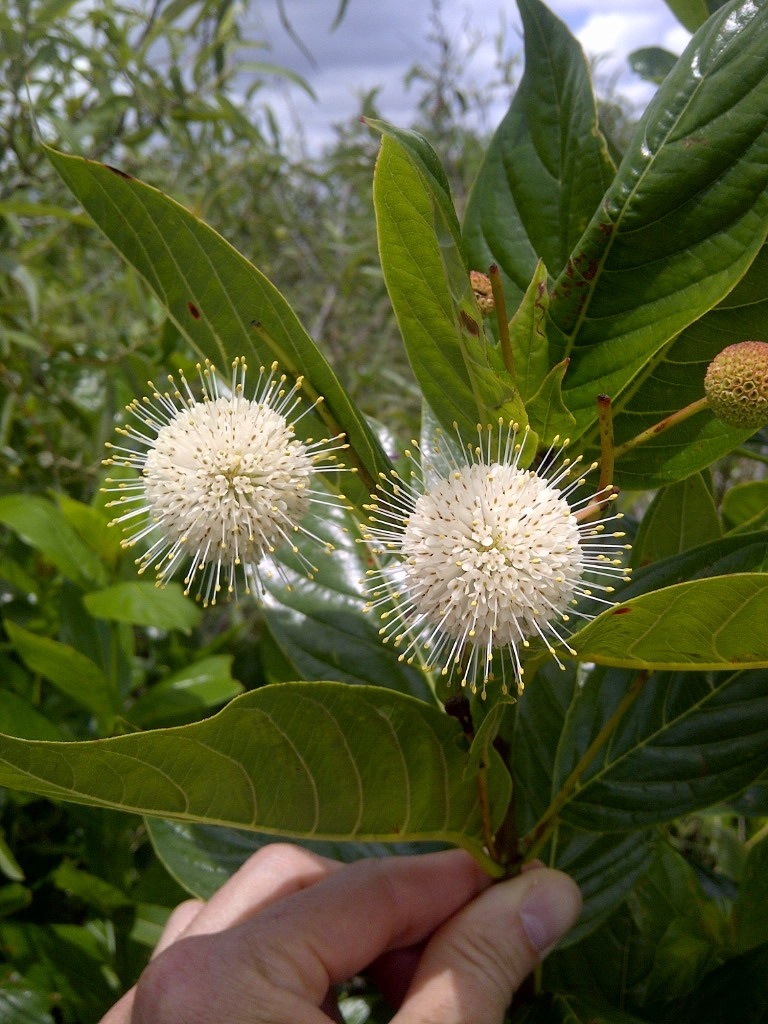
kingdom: Plantae
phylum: Tracheophyta
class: Magnoliopsida
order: Gentianales
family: Rubiaceae
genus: Cephalanthus
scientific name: Cephalanthus occidentalis
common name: Button-willow
